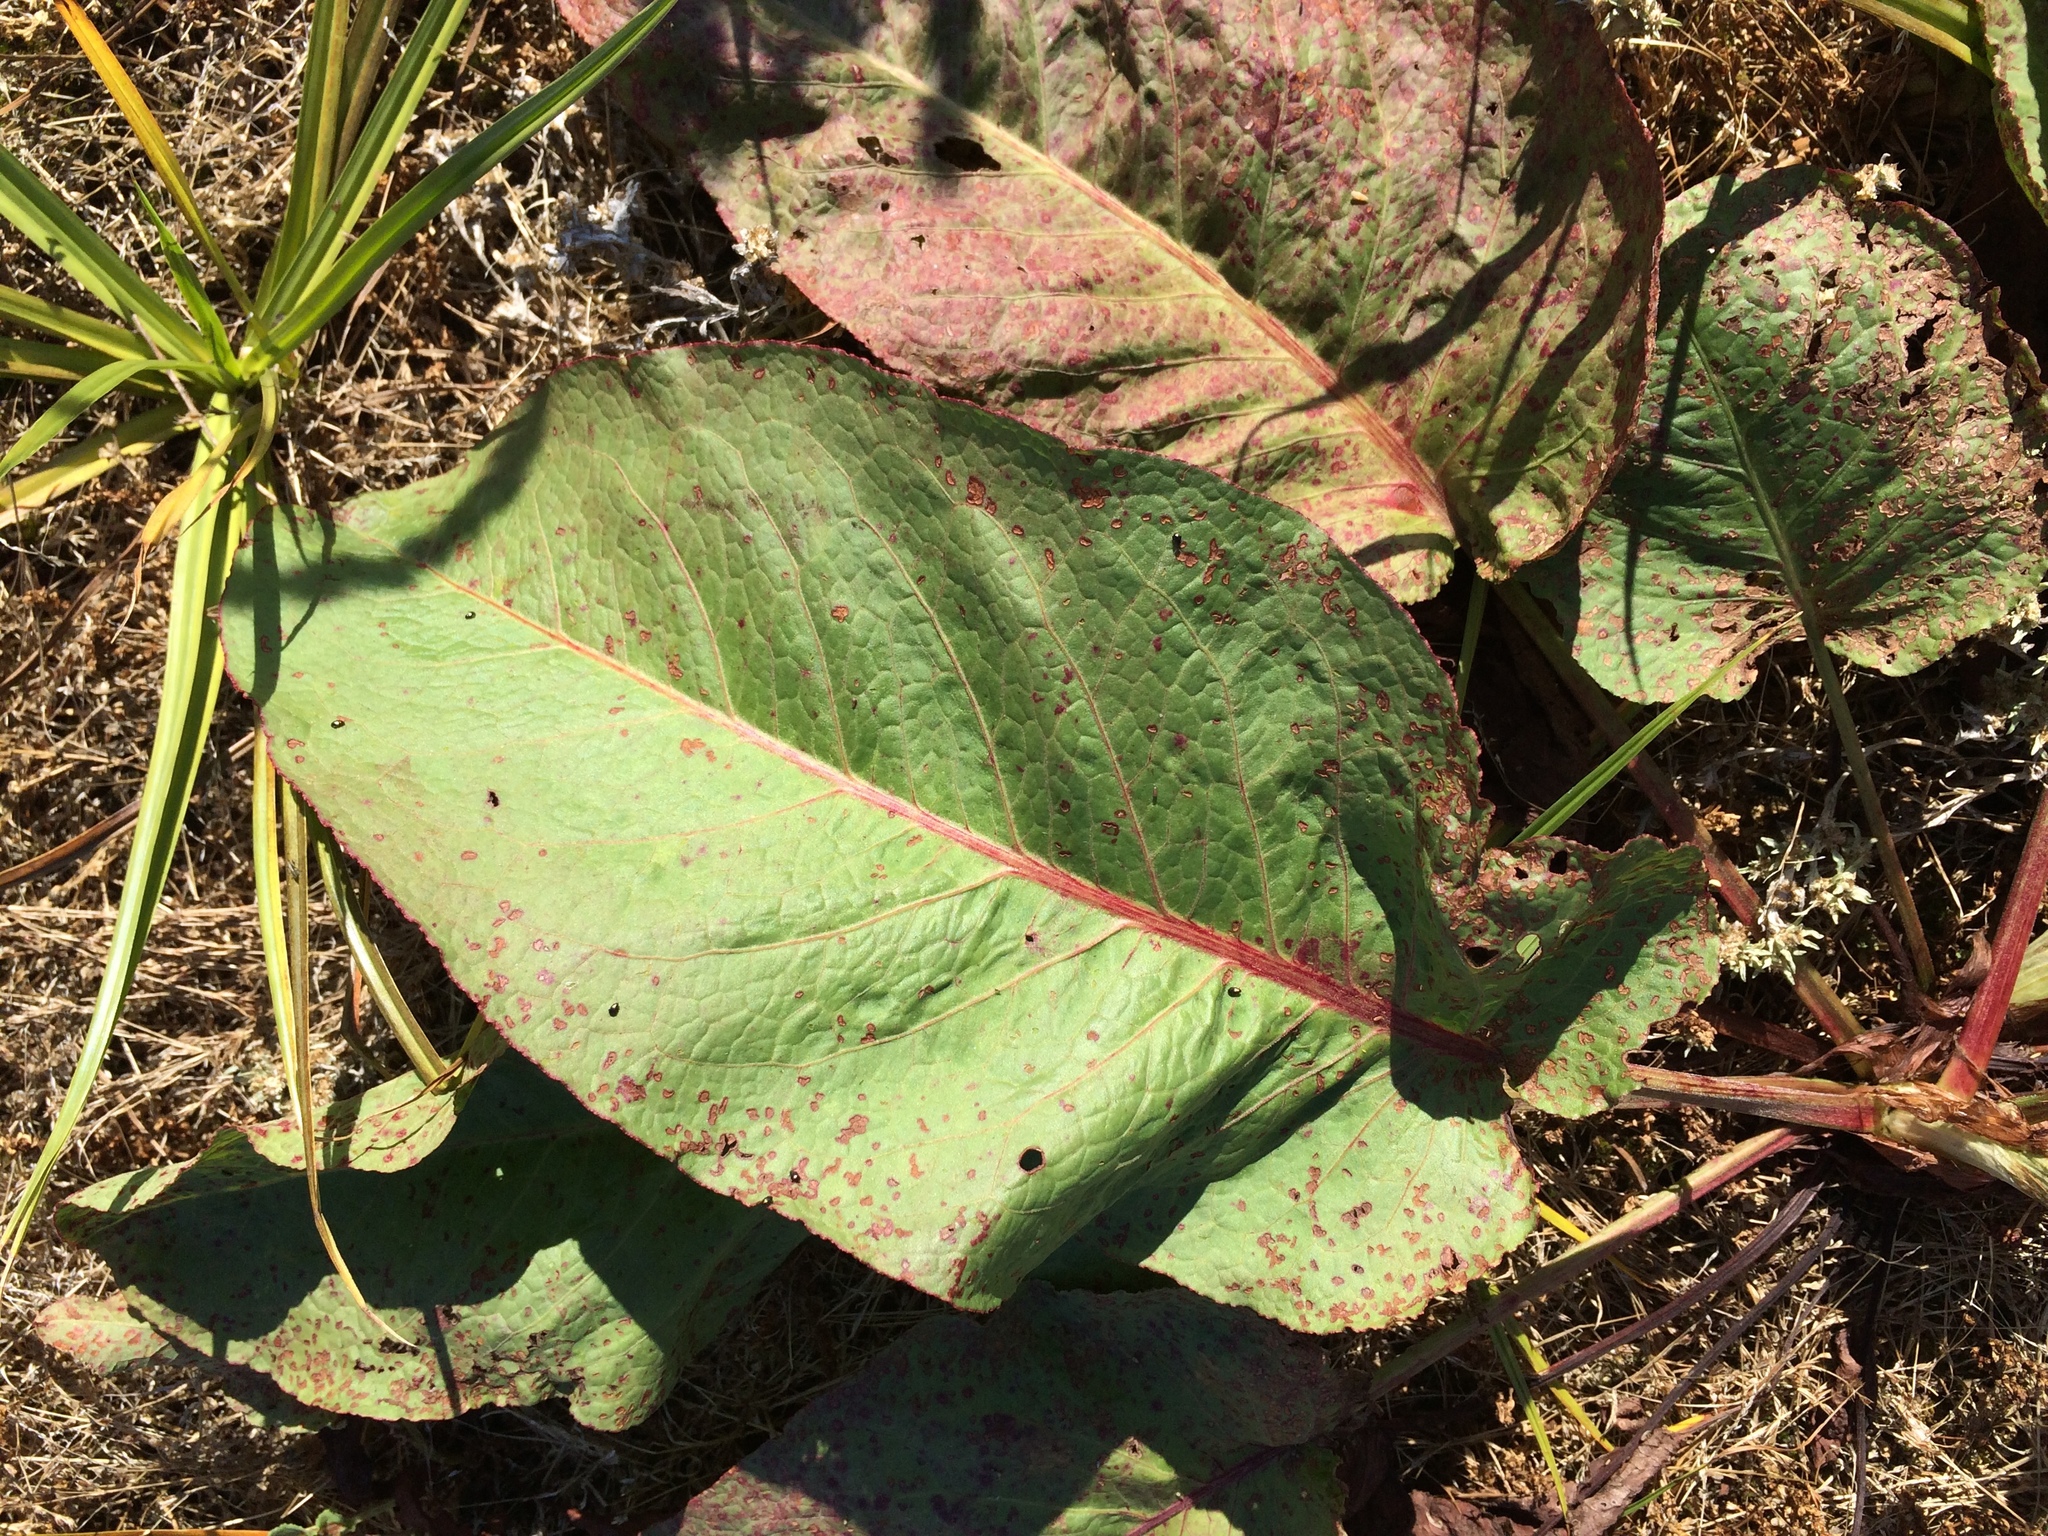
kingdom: Plantae
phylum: Tracheophyta
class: Magnoliopsida
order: Caryophyllales
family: Polygonaceae
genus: Rumex
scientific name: Rumex obtusifolius
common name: Bitter dock
